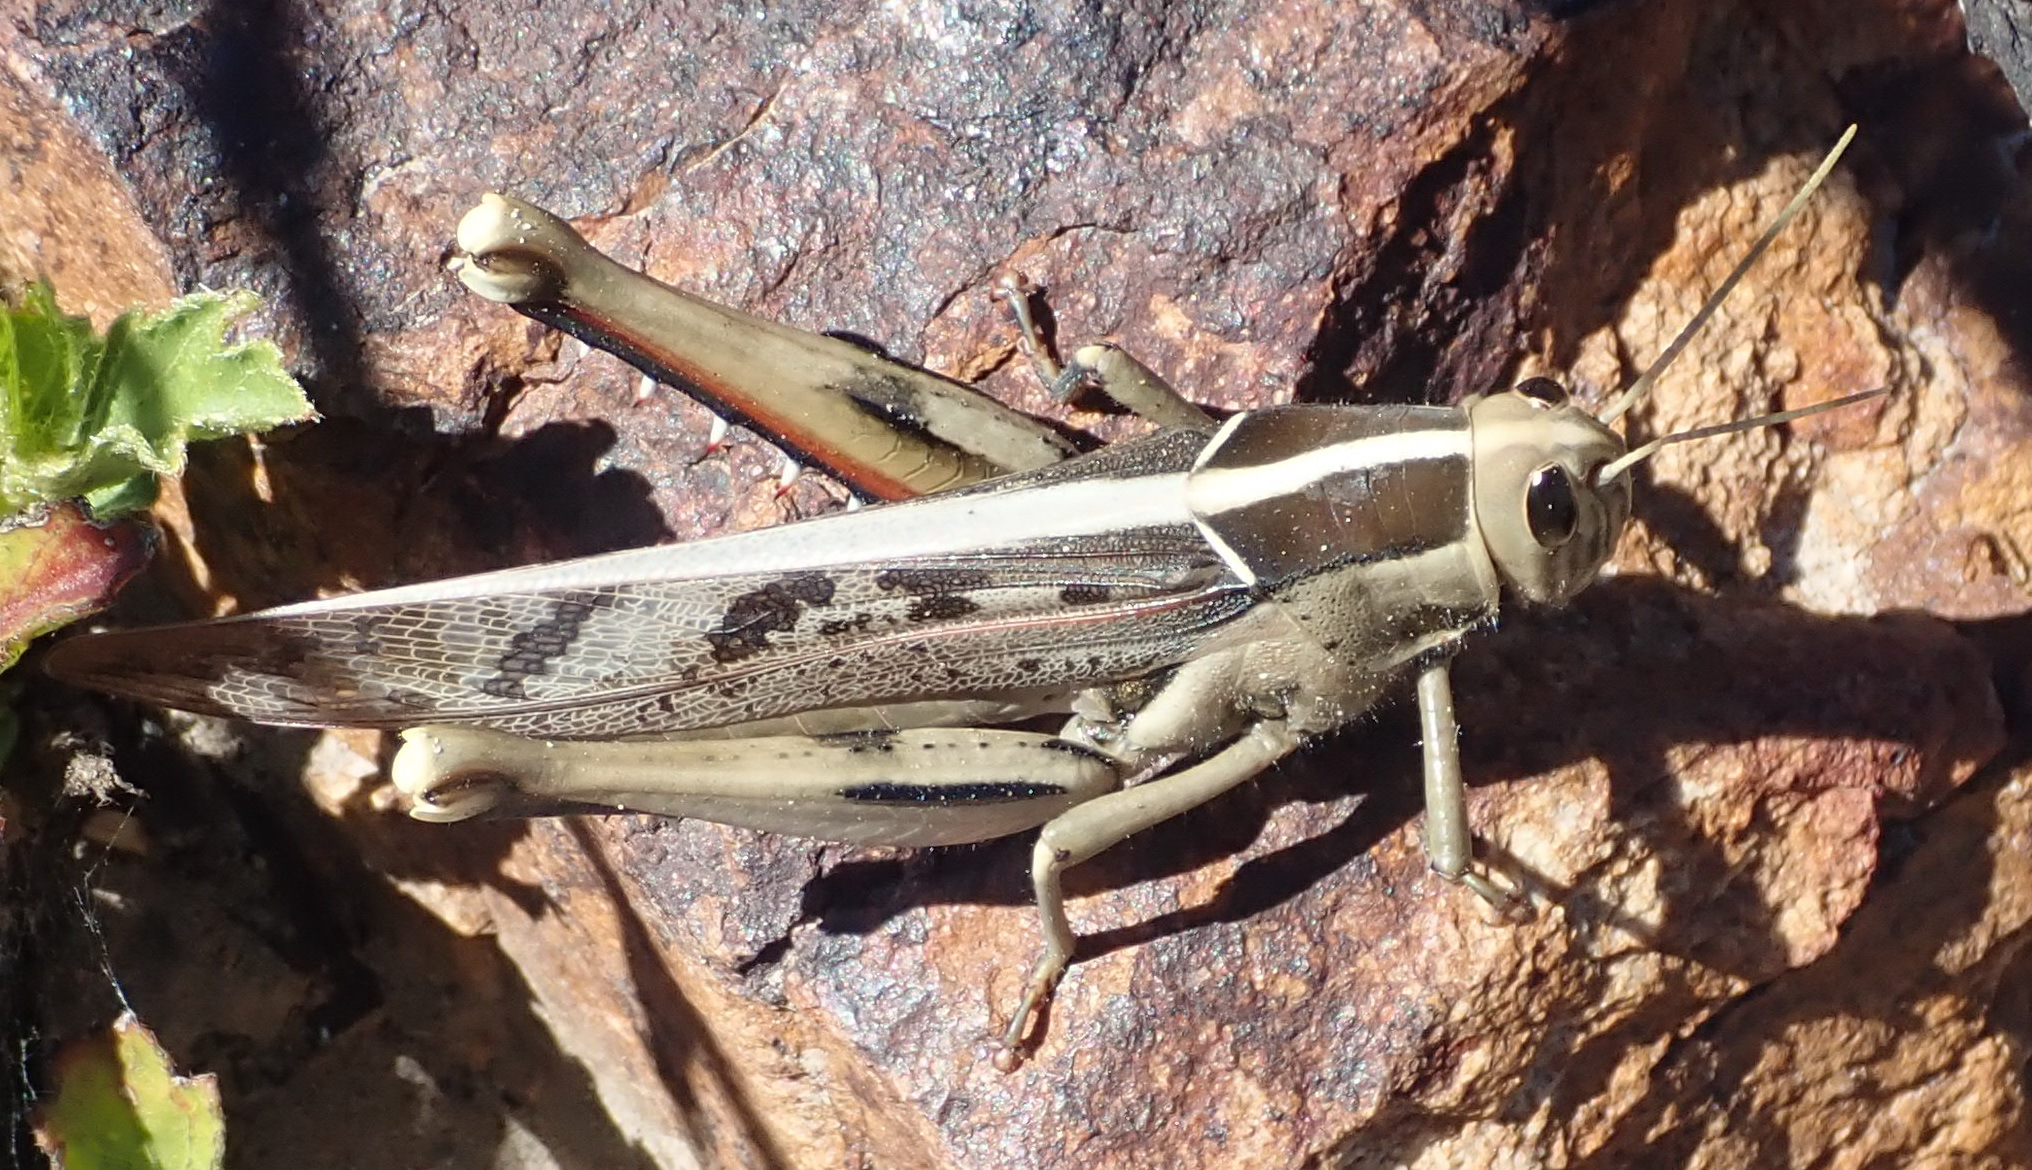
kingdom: Animalia
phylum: Arthropoda
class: Insecta
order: Orthoptera
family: Acrididae
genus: Acanthacris
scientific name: Acanthacris ruficornis
